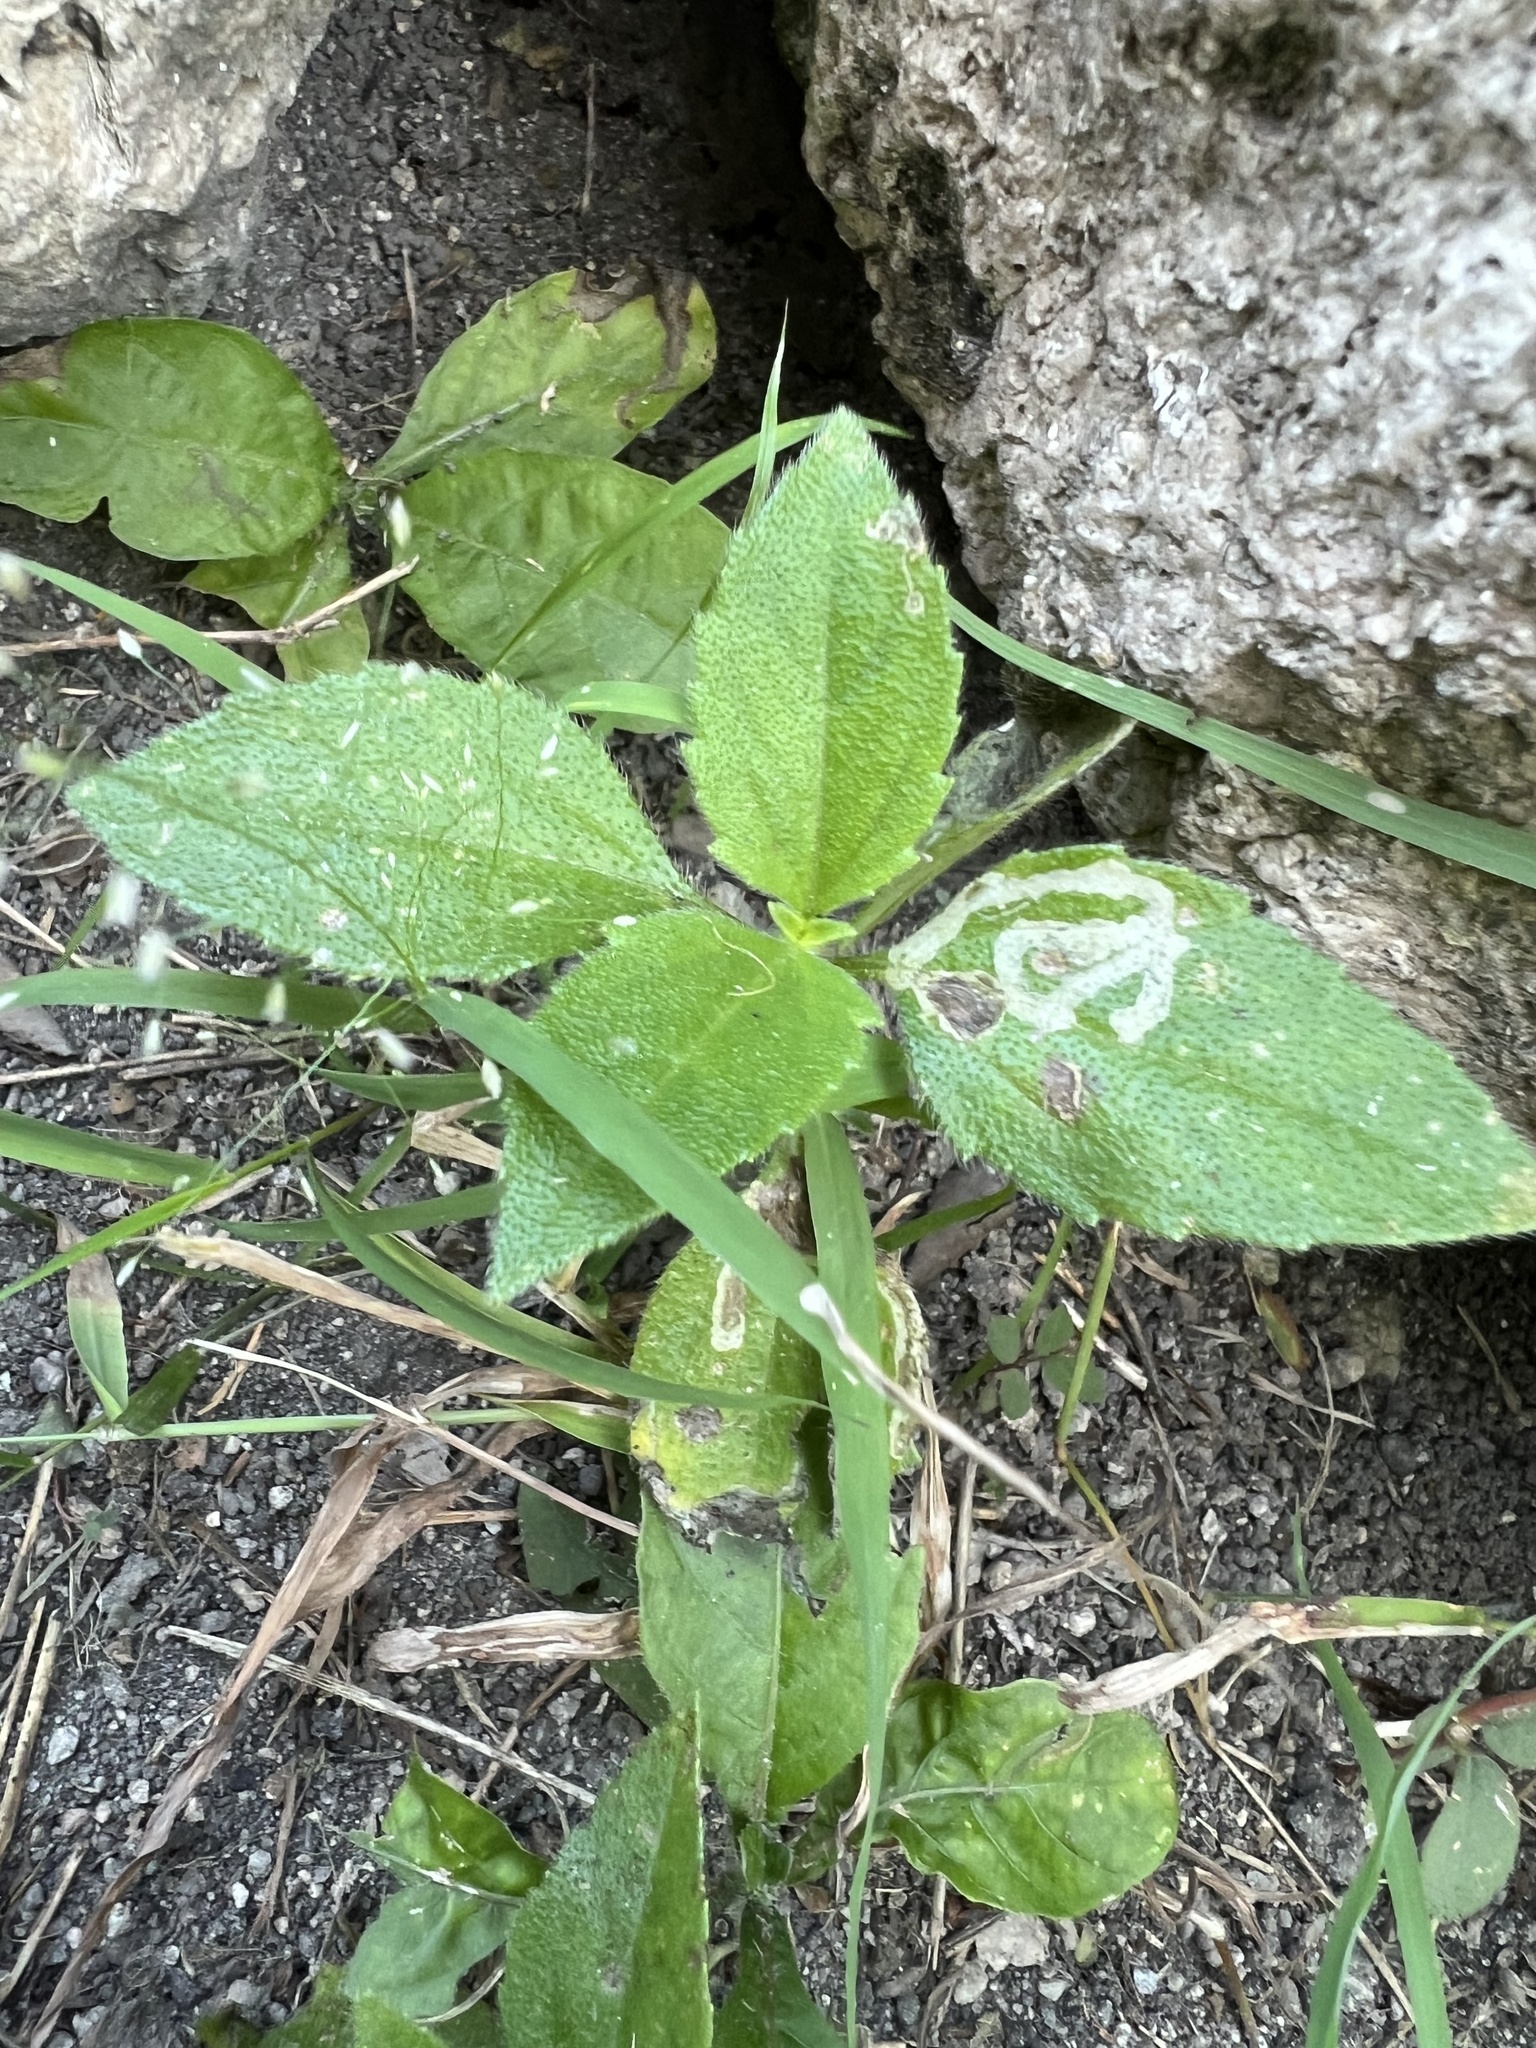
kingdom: Plantae
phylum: Tracheophyta
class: Magnoliopsida
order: Asterales
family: Asteraceae
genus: Tridax
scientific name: Tridax procumbens
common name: Coatbuttons
